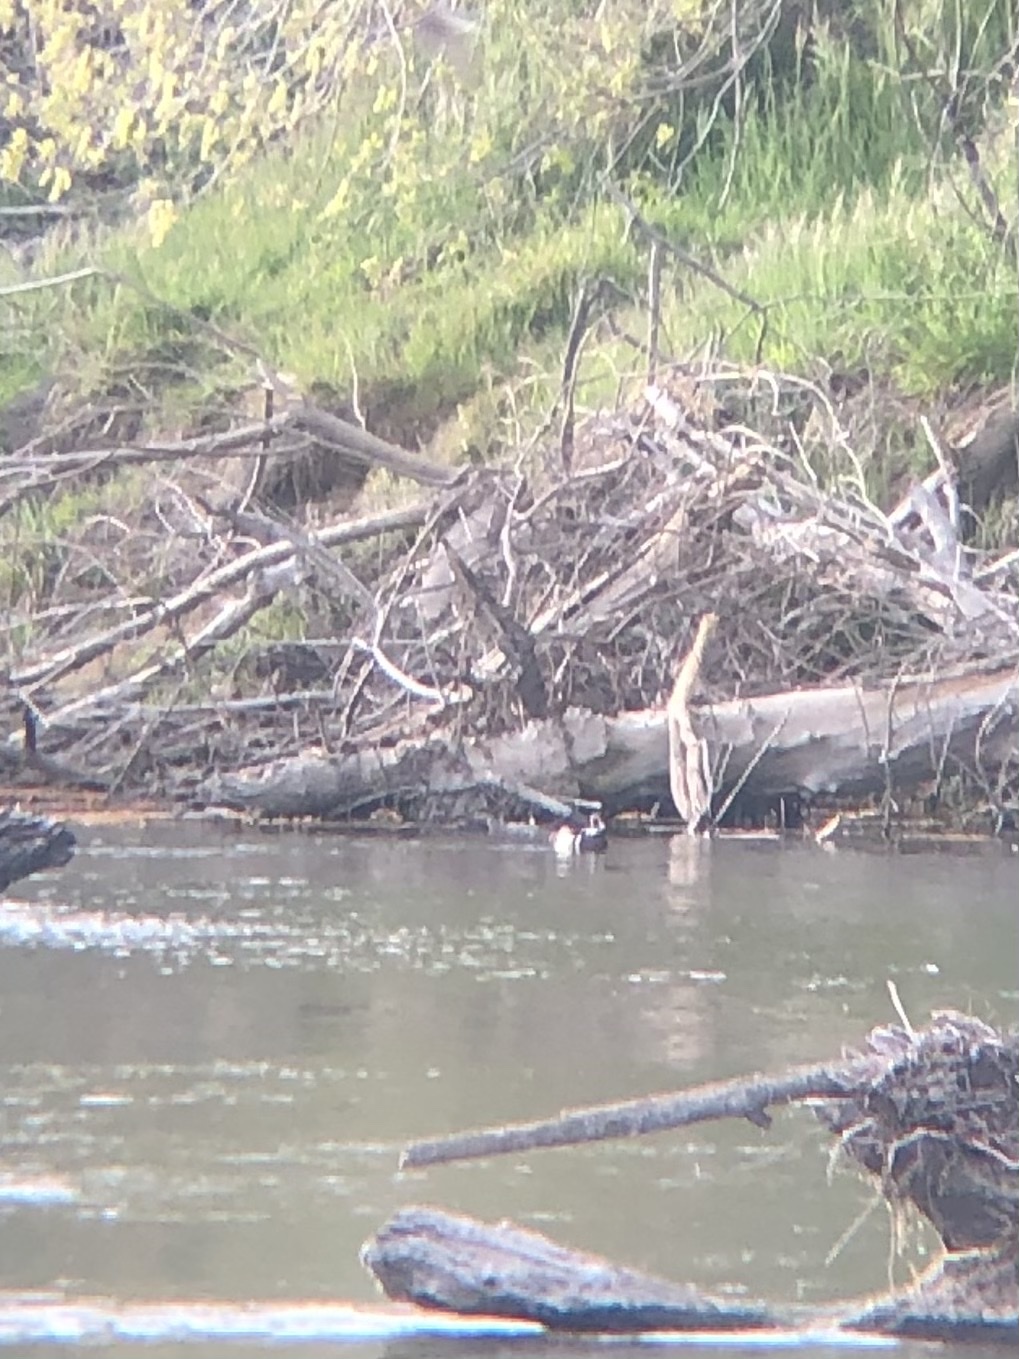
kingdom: Animalia
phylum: Chordata
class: Aves
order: Anseriformes
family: Anatidae
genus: Aix
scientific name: Aix sponsa
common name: Wood duck
